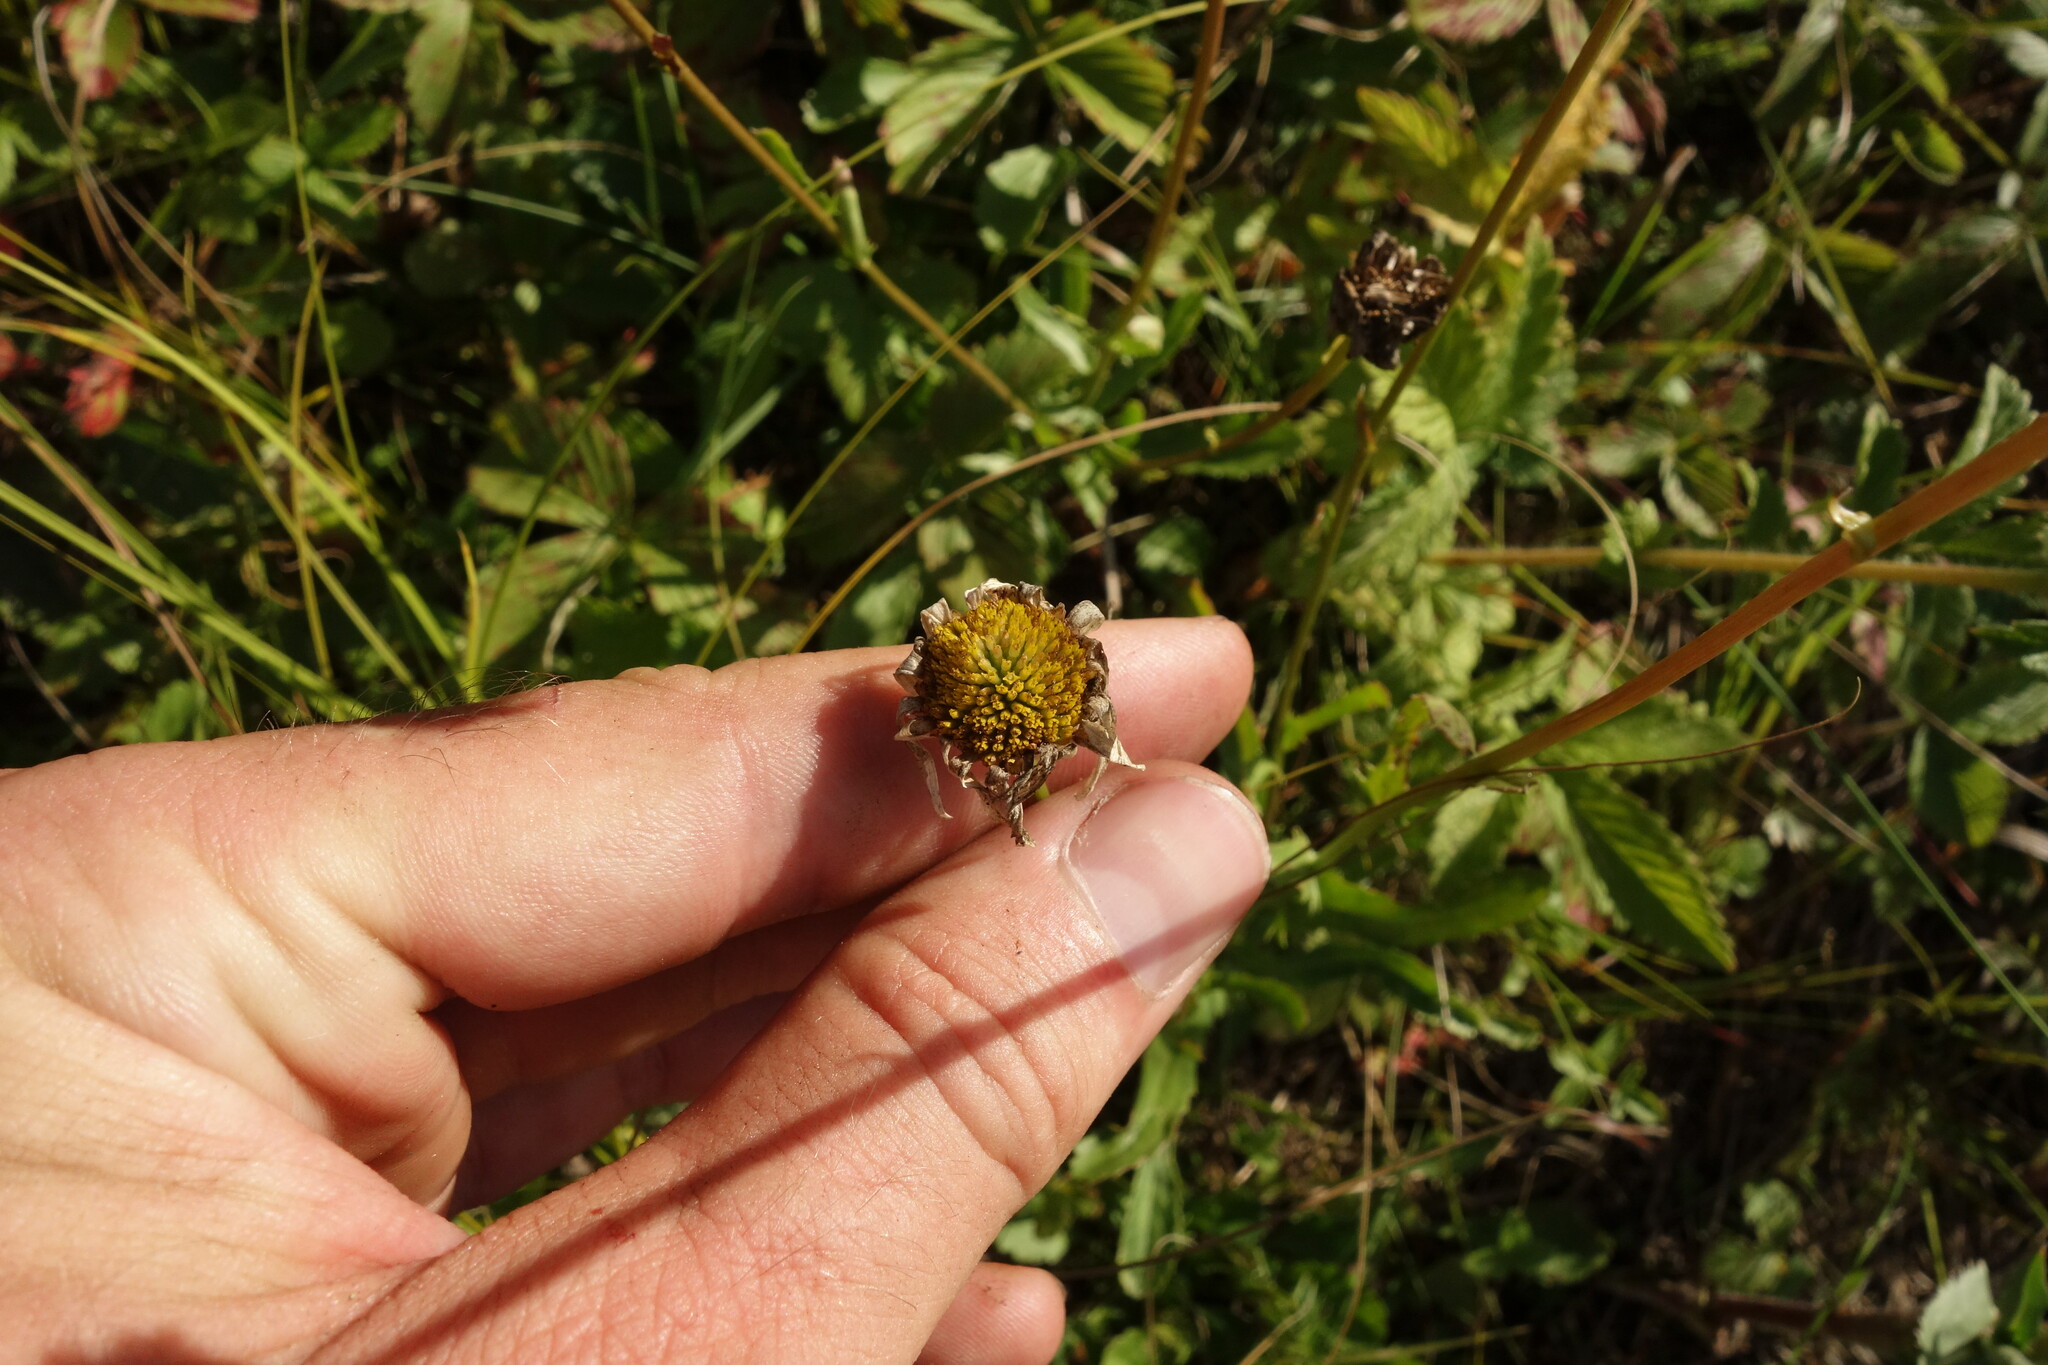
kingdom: Plantae
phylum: Tracheophyta
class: Magnoliopsida
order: Asterales
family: Asteraceae
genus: Leucanthemum
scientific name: Leucanthemum vulgare
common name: Oxeye daisy
